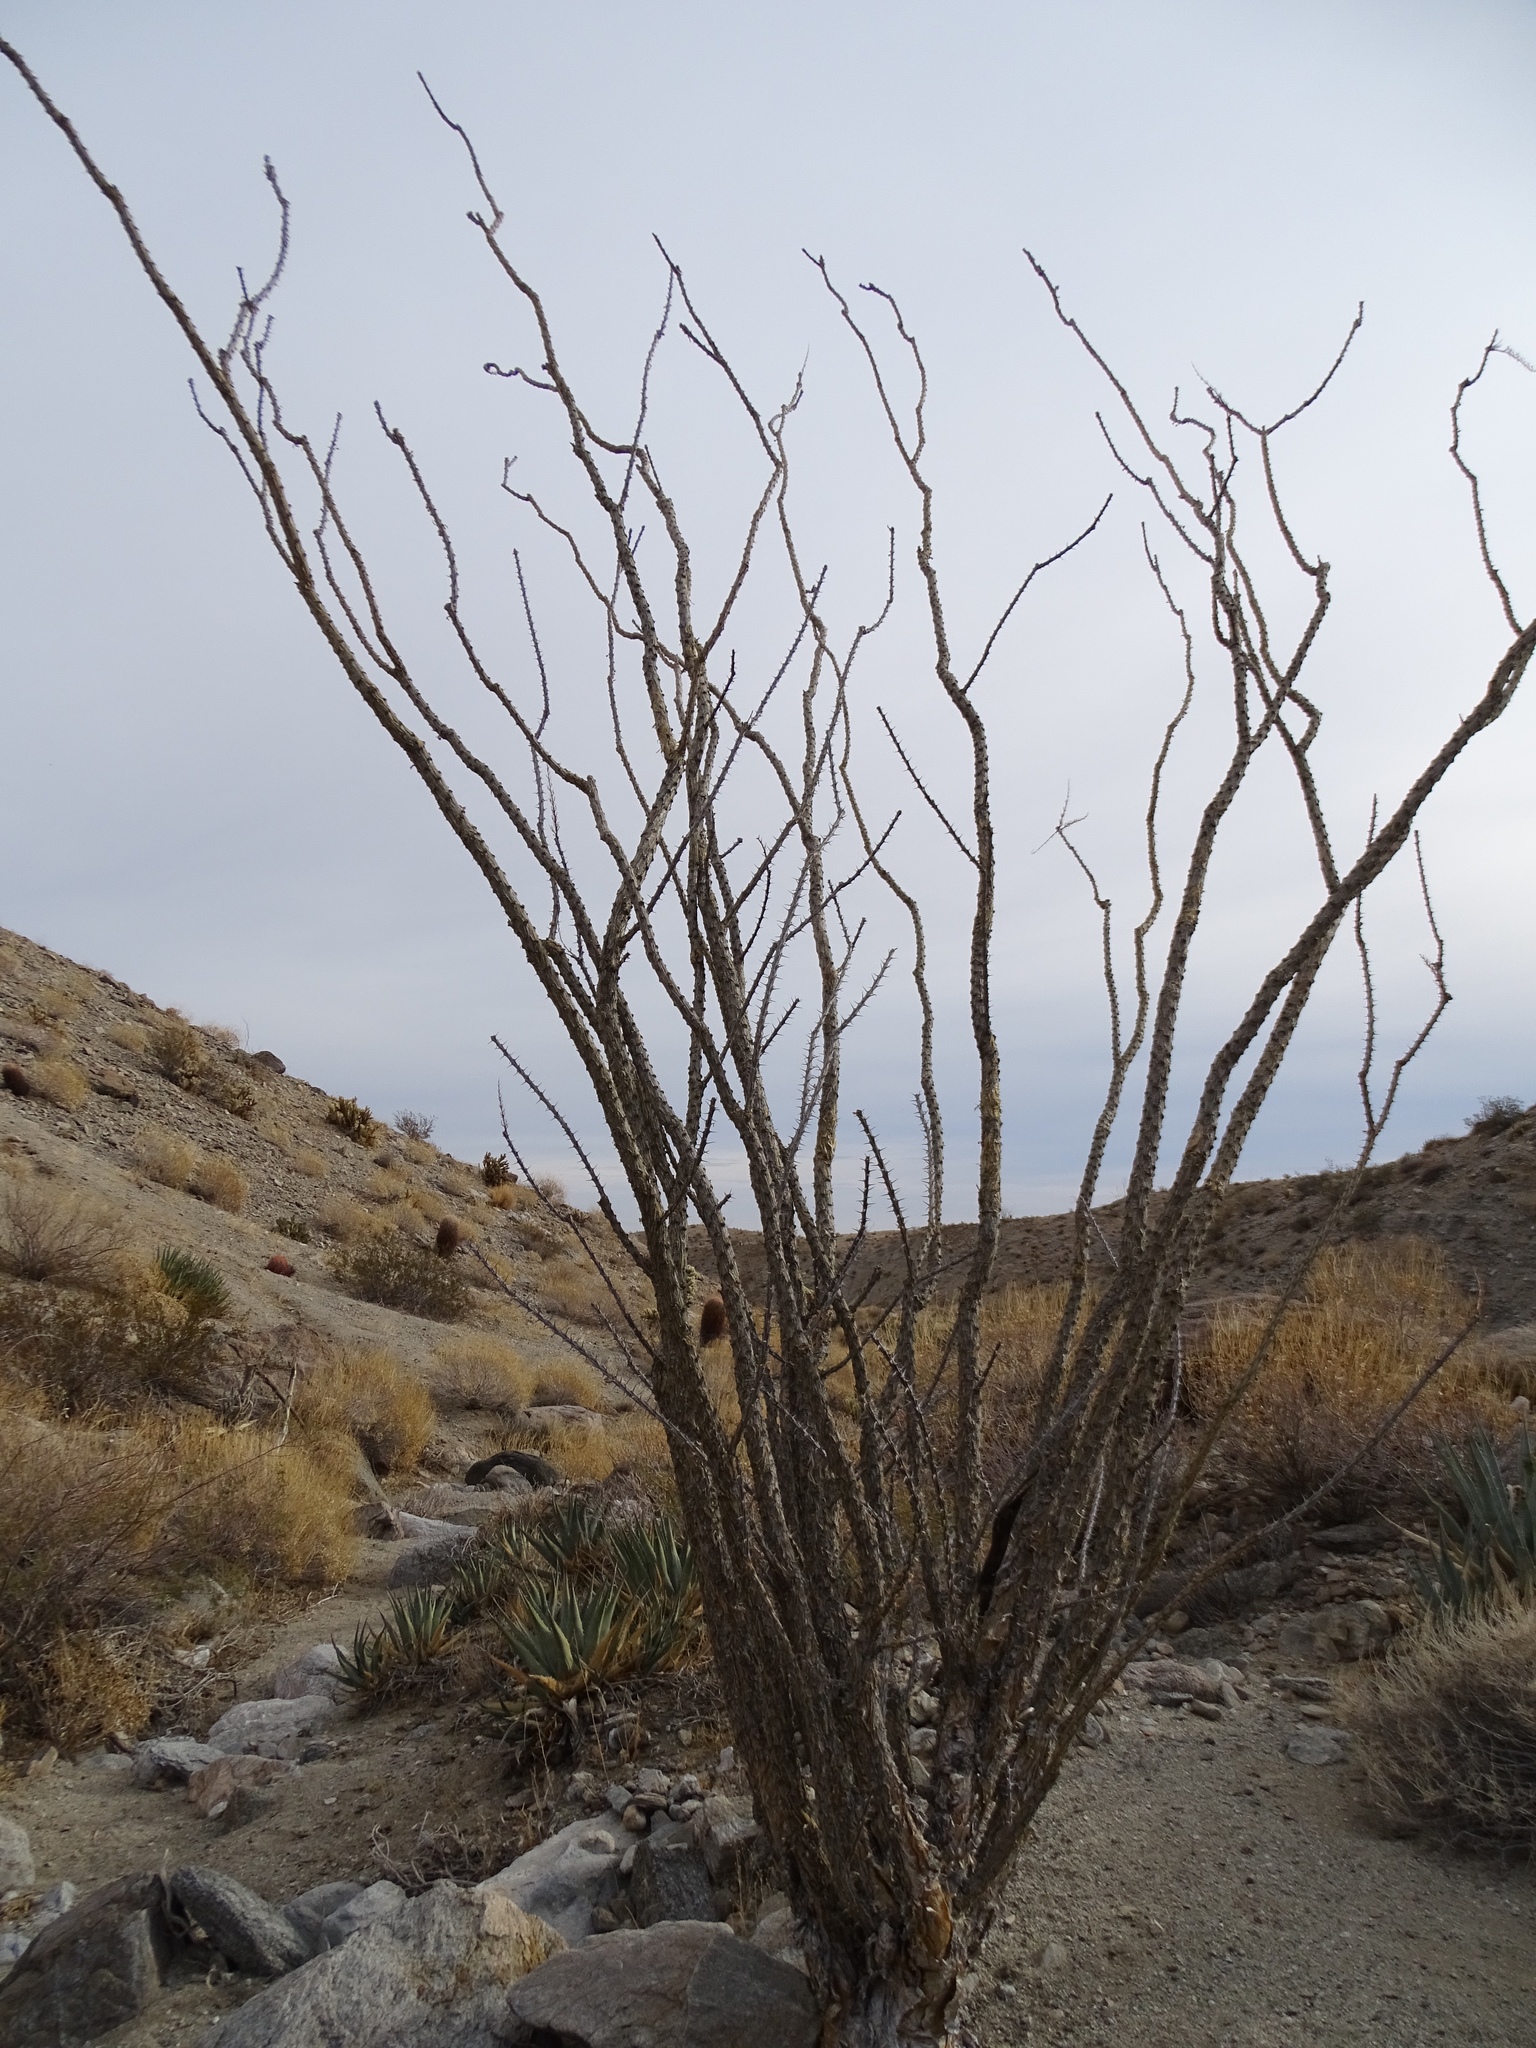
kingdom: Plantae
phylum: Tracheophyta
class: Magnoliopsida
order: Ericales
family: Fouquieriaceae
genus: Fouquieria
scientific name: Fouquieria splendens
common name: Vine-cactus
